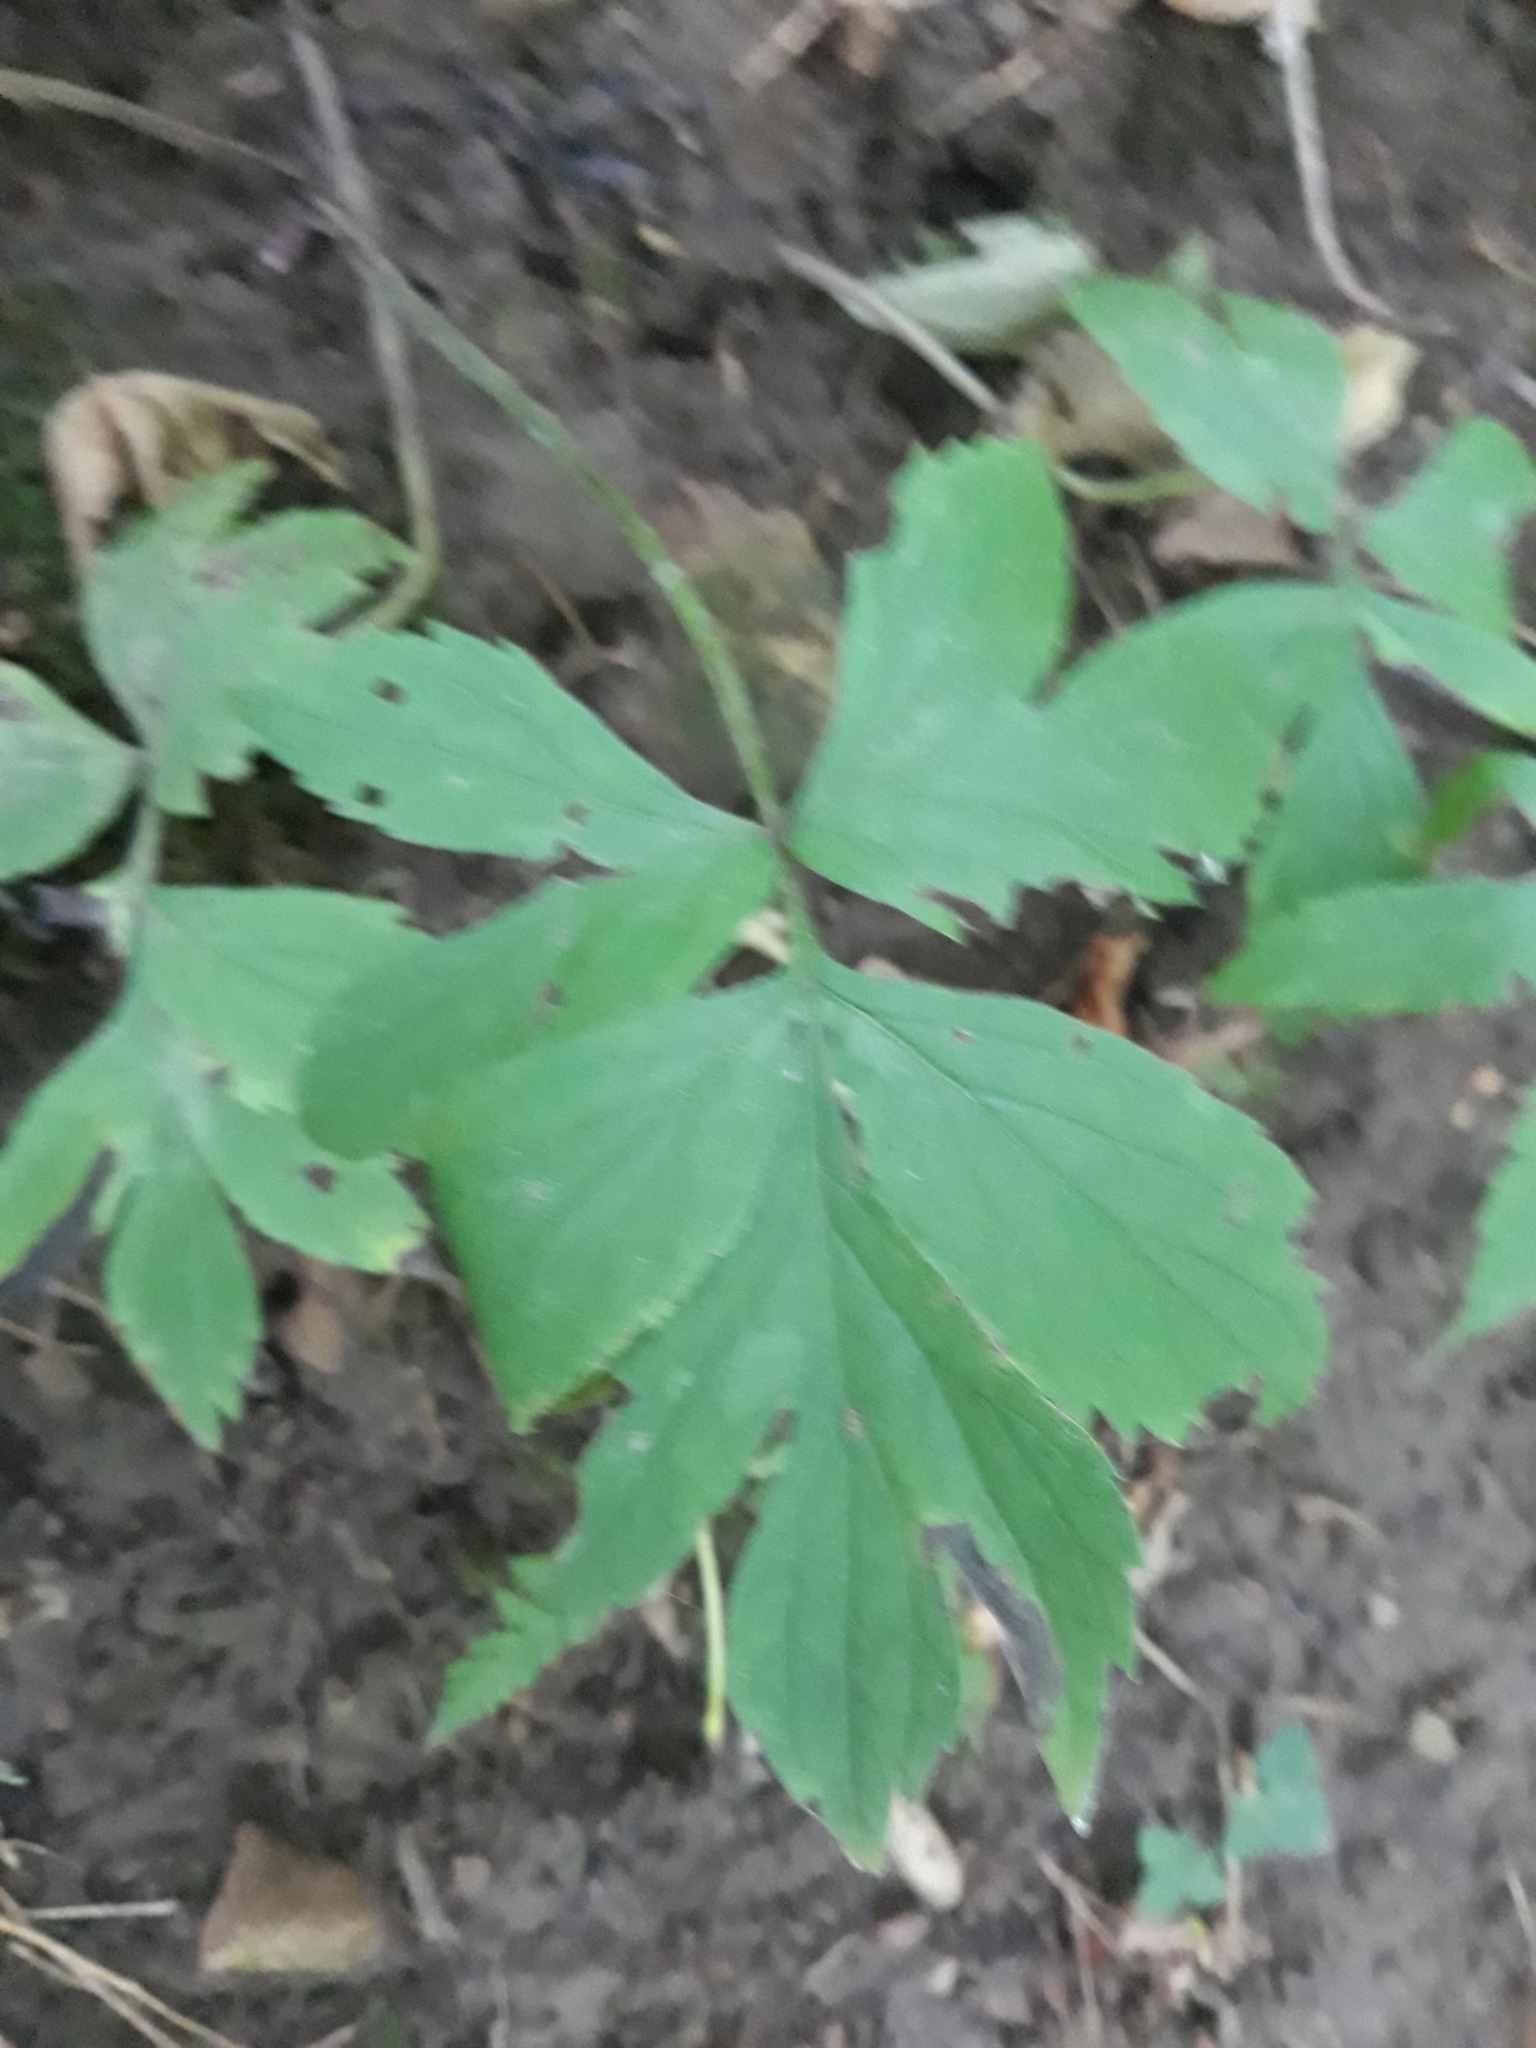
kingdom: Plantae
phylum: Tracheophyta
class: Magnoliopsida
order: Boraginales
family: Hydrophyllaceae
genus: Hydrophyllum
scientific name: Hydrophyllum virginianum
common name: Virginia waterleaf
